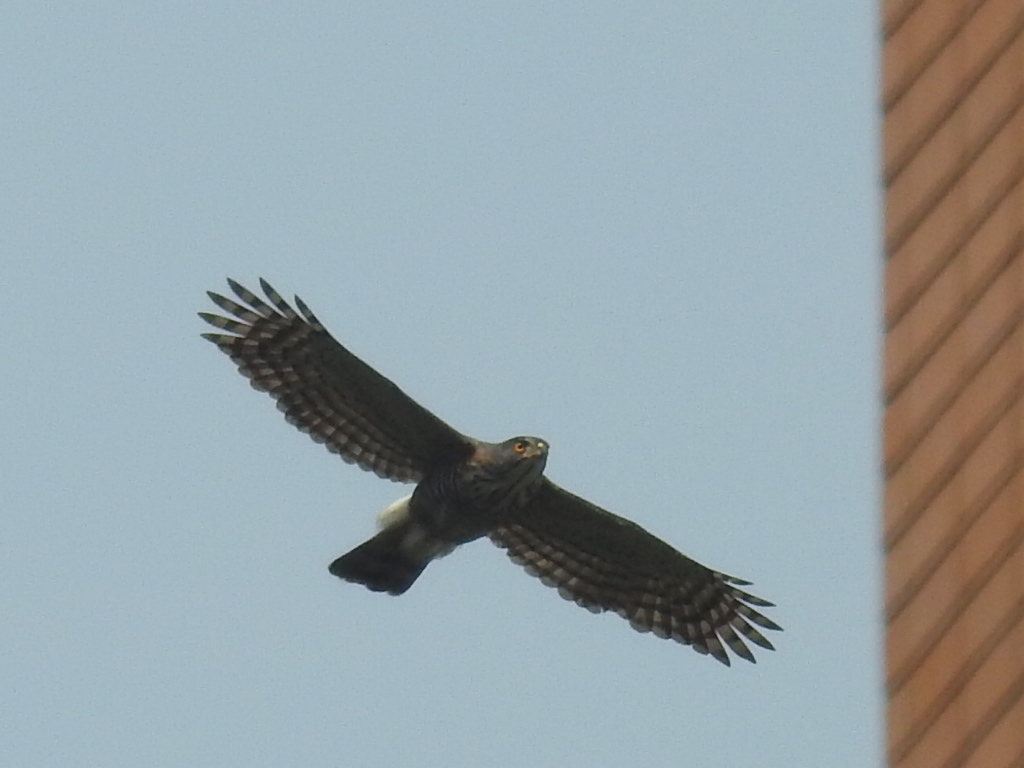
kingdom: Animalia
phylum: Chordata
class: Aves
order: Accipitriformes
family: Accipitridae
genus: Accipiter
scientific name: Accipiter trivirgatus
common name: Crested goshawk
